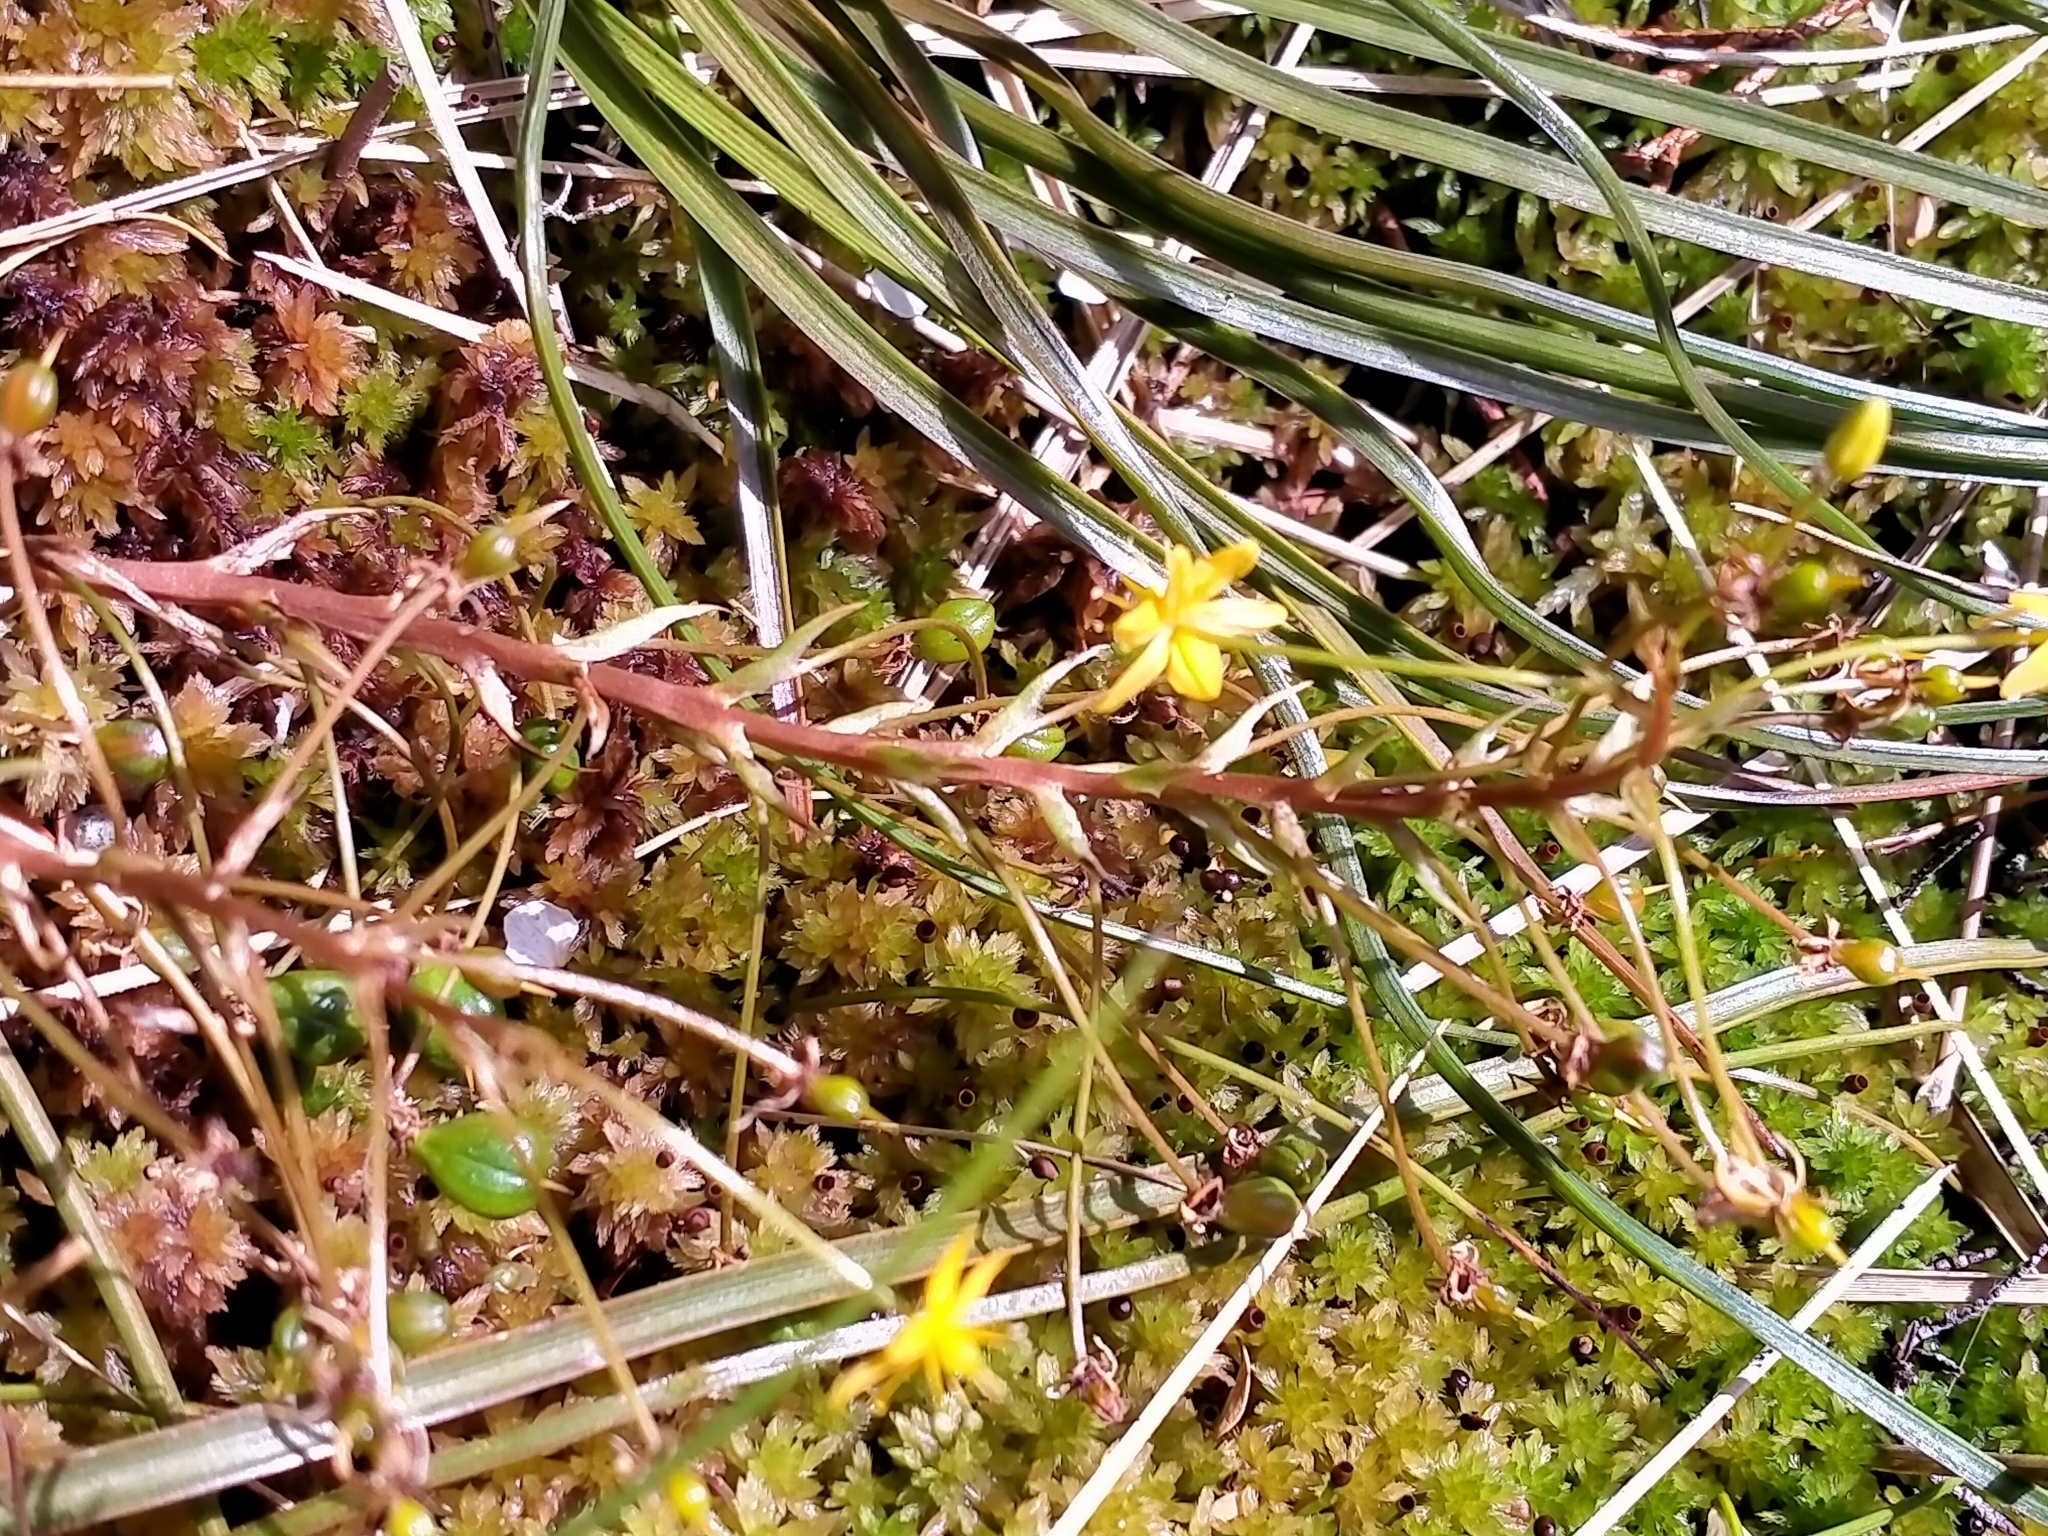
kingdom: Plantae
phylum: Tracheophyta
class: Liliopsida
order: Asparagales
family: Asphodelaceae
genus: Bulbinella
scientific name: Bulbinella modesta
